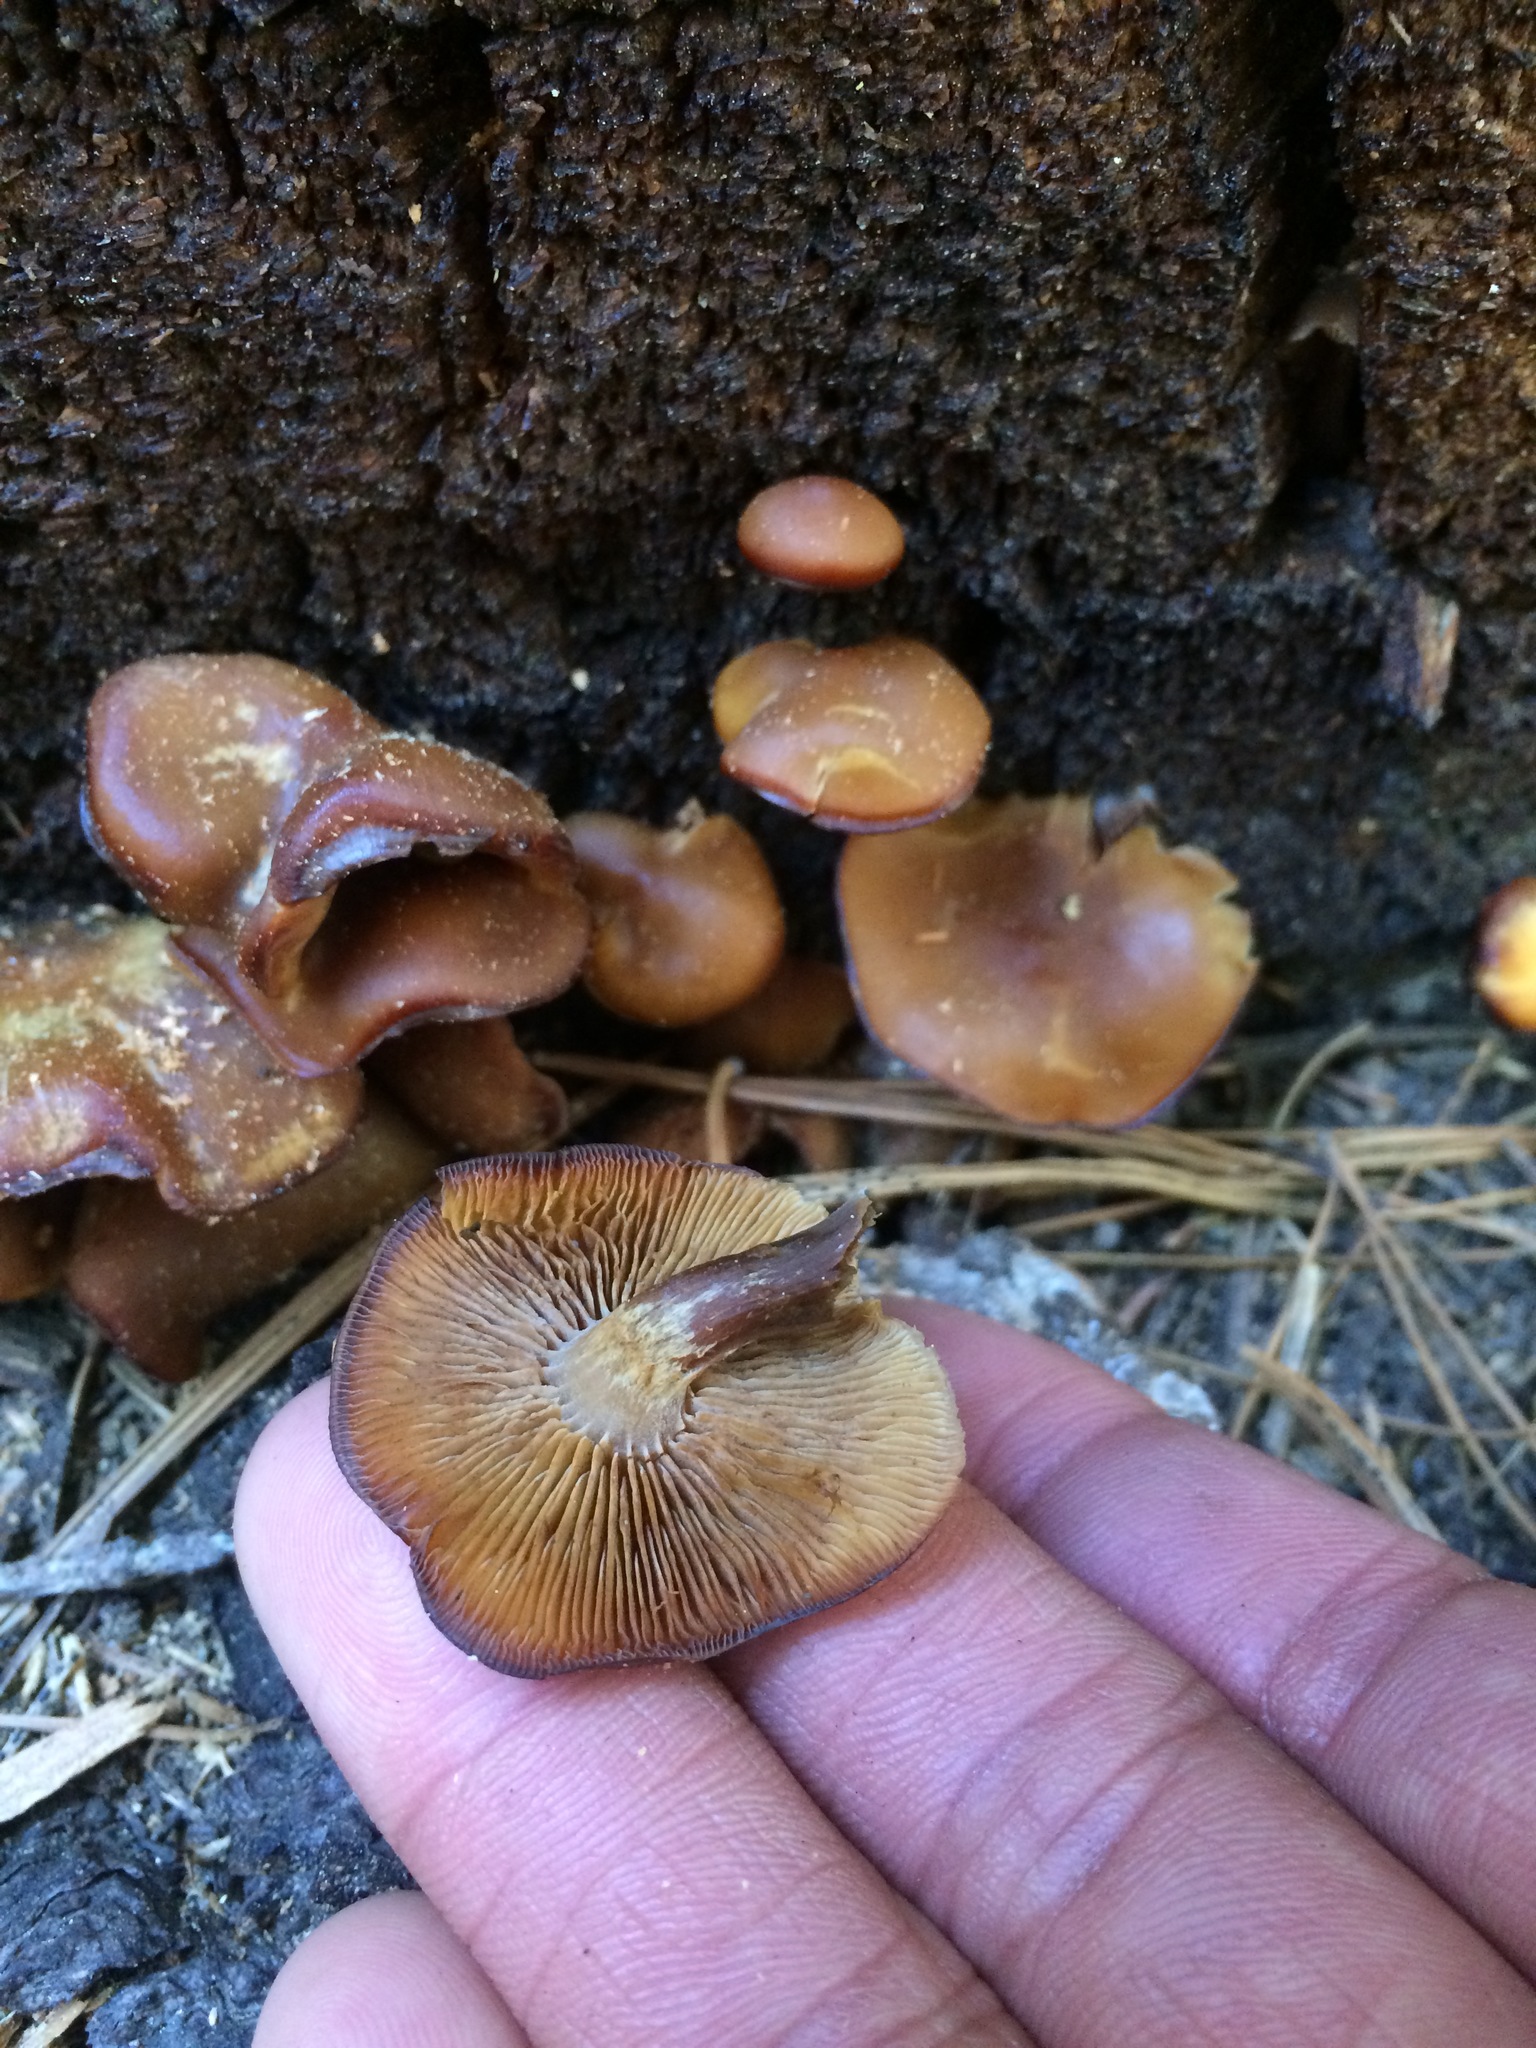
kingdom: Fungi
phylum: Basidiomycota
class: Agaricomycetes
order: Agaricales
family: Strophariaceae
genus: Pholiota
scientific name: Pholiota lignicola
